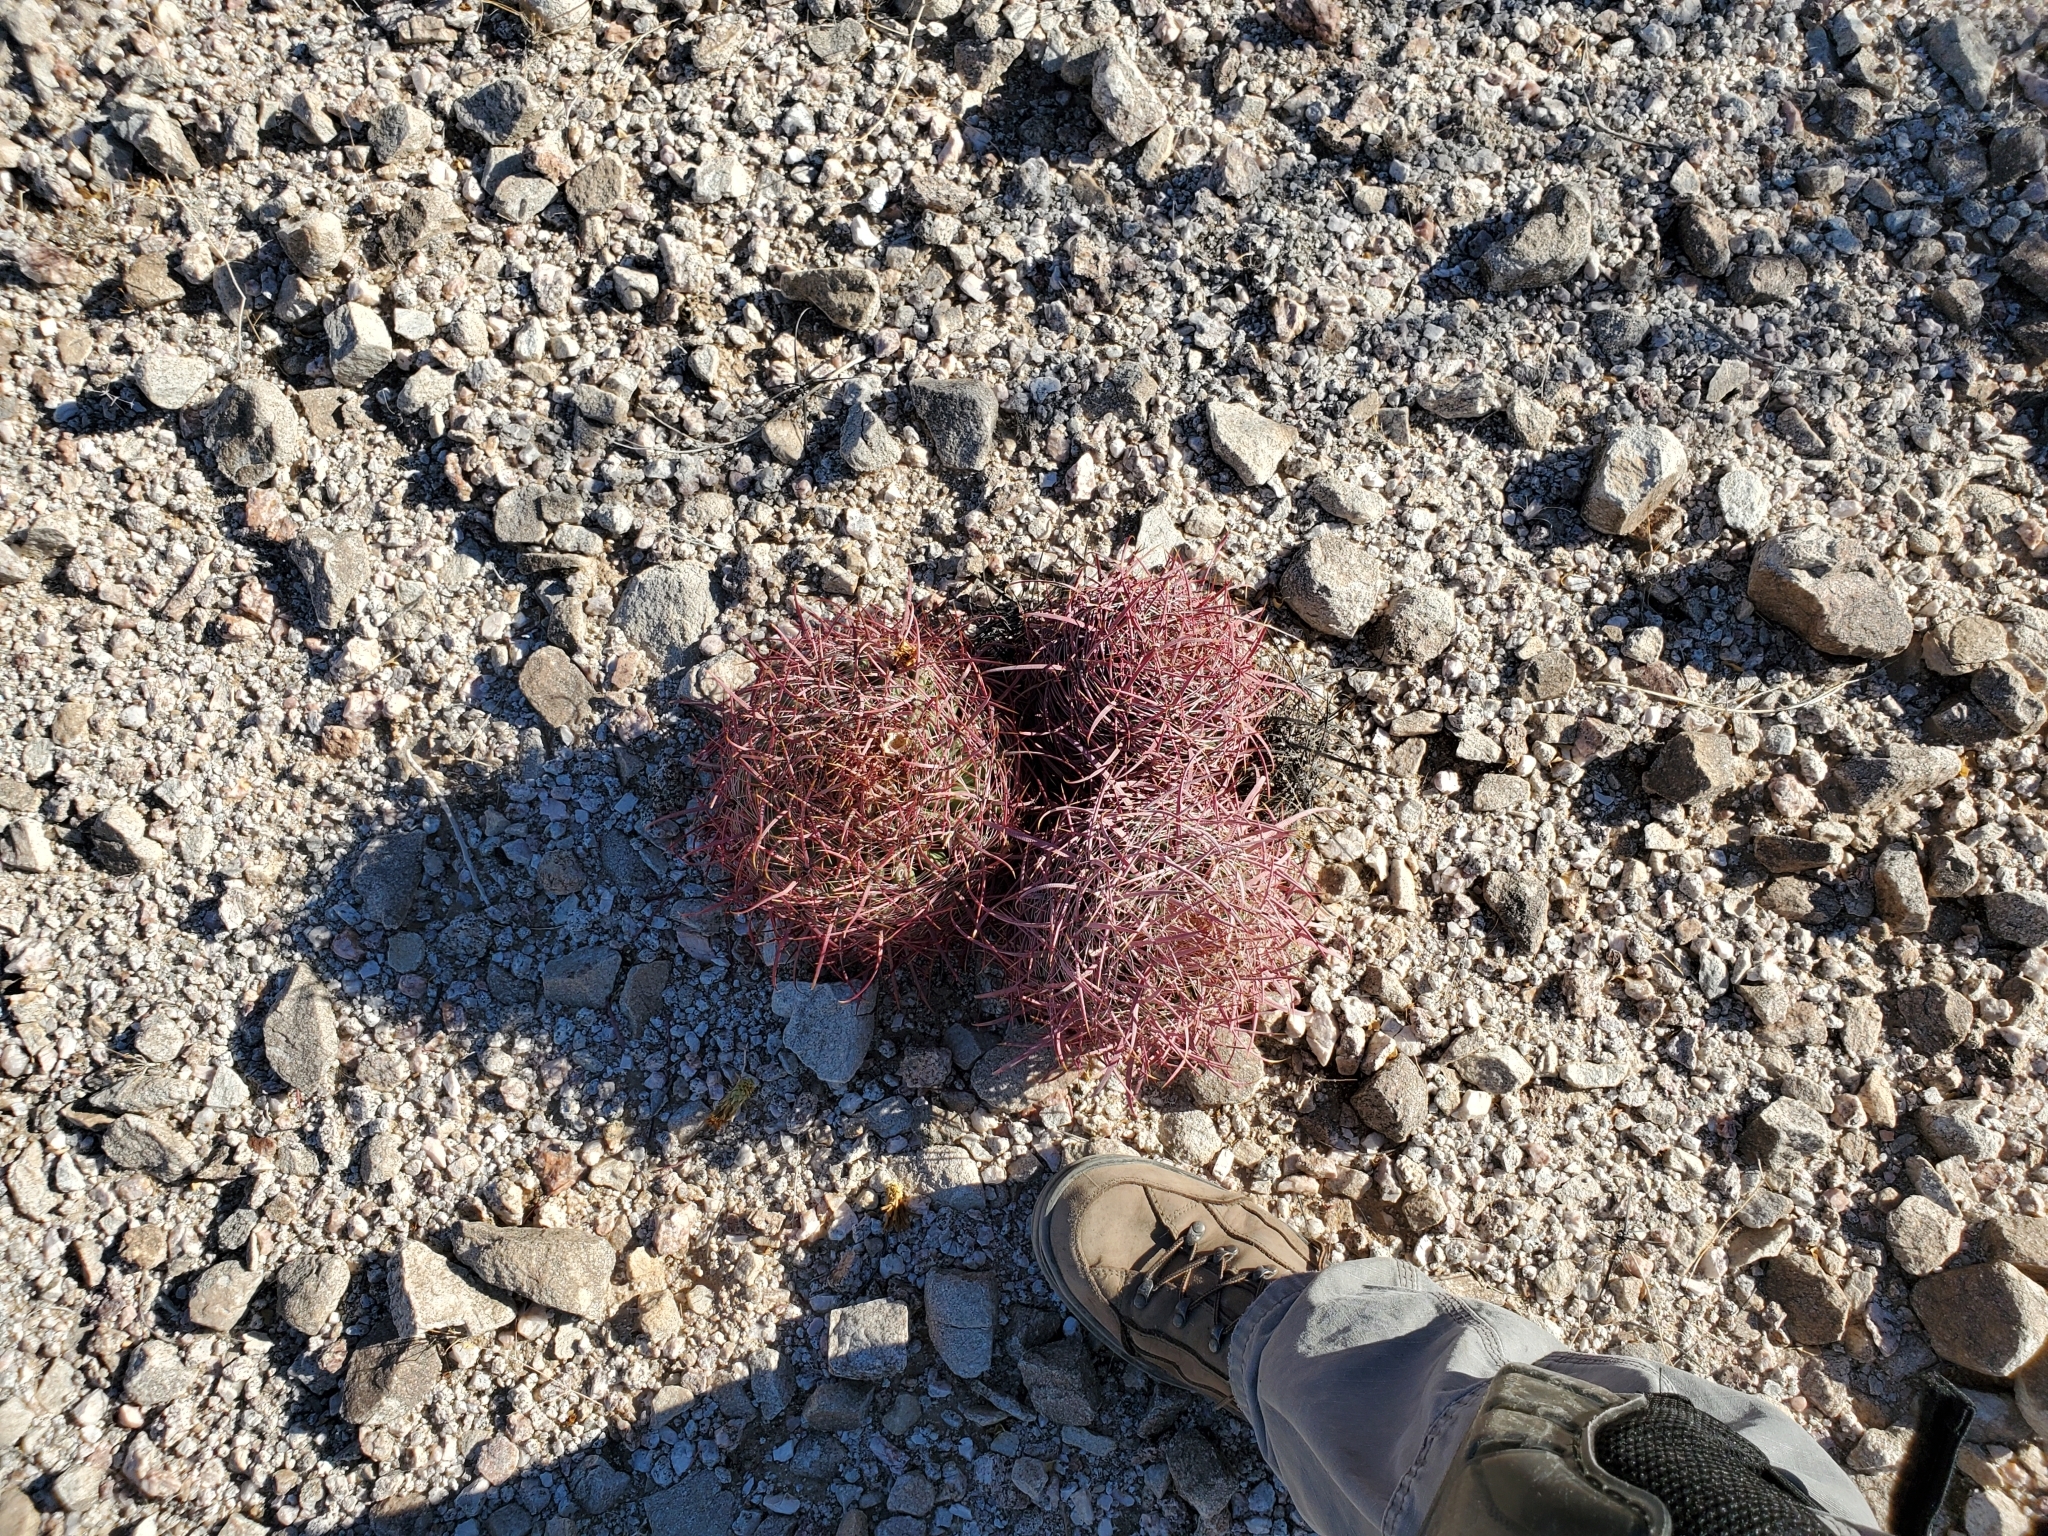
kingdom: Plantae
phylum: Tracheophyta
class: Magnoliopsida
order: Caryophyllales
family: Cactaceae
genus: Ferocactus
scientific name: Ferocactus cylindraceus
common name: California barrel cactus
